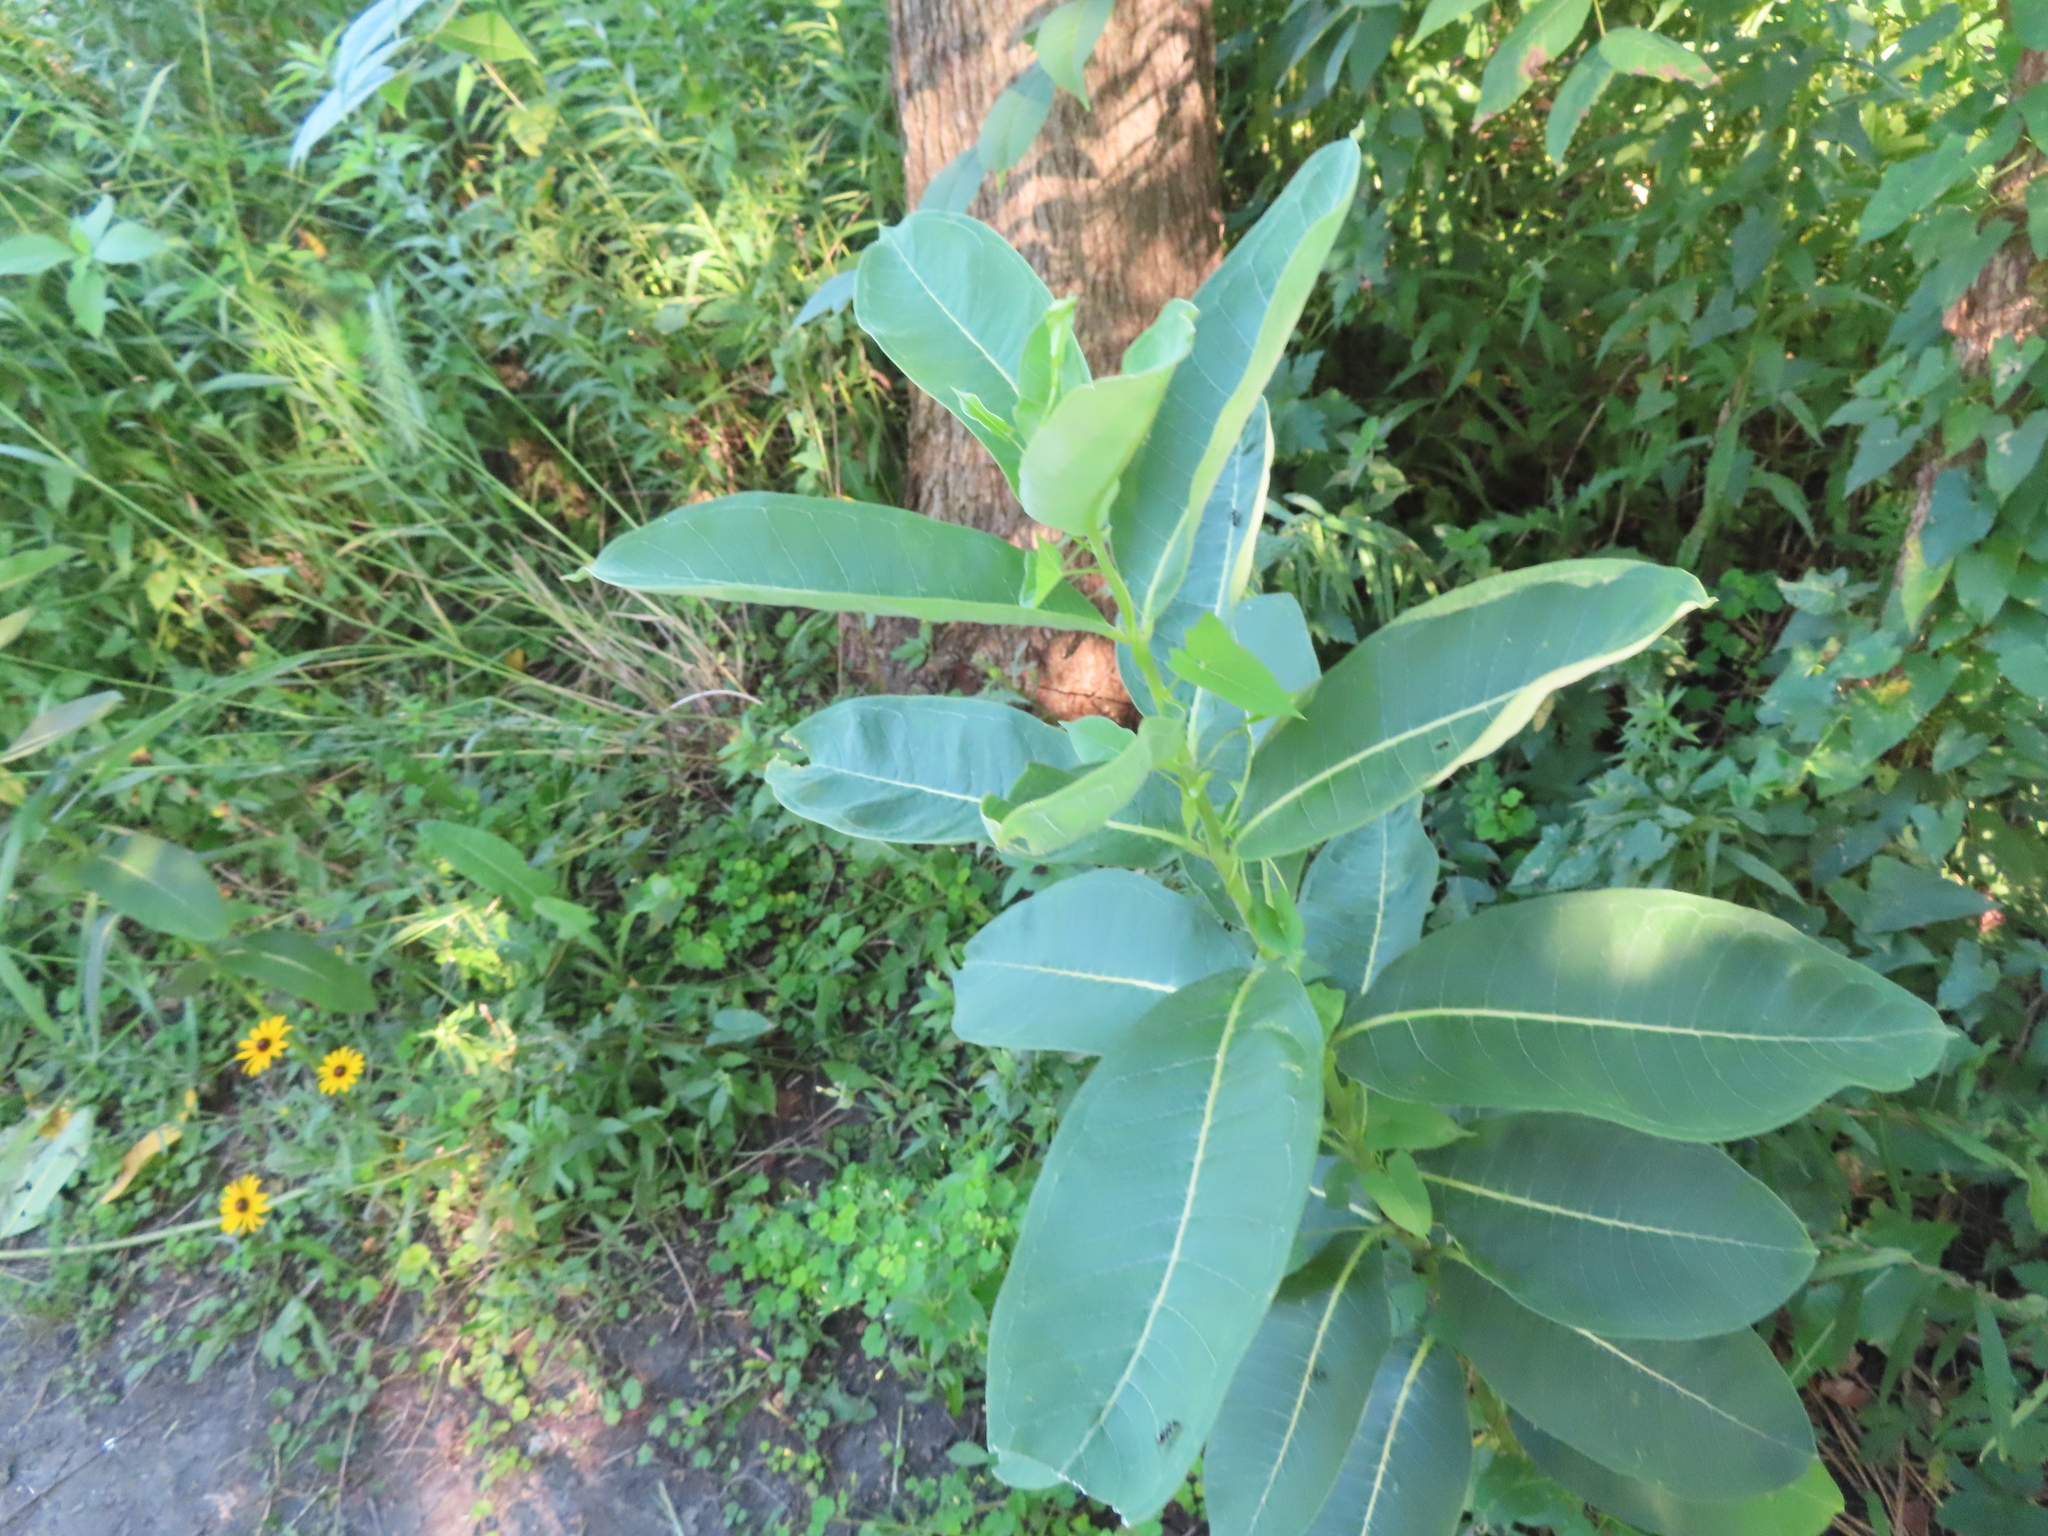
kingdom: Plantae
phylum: Tracheophyta
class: Magnoliopsida
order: Gentianales
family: Apocynaceae
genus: Asclepias
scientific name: Asclepias syriaca
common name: Common milkweed
